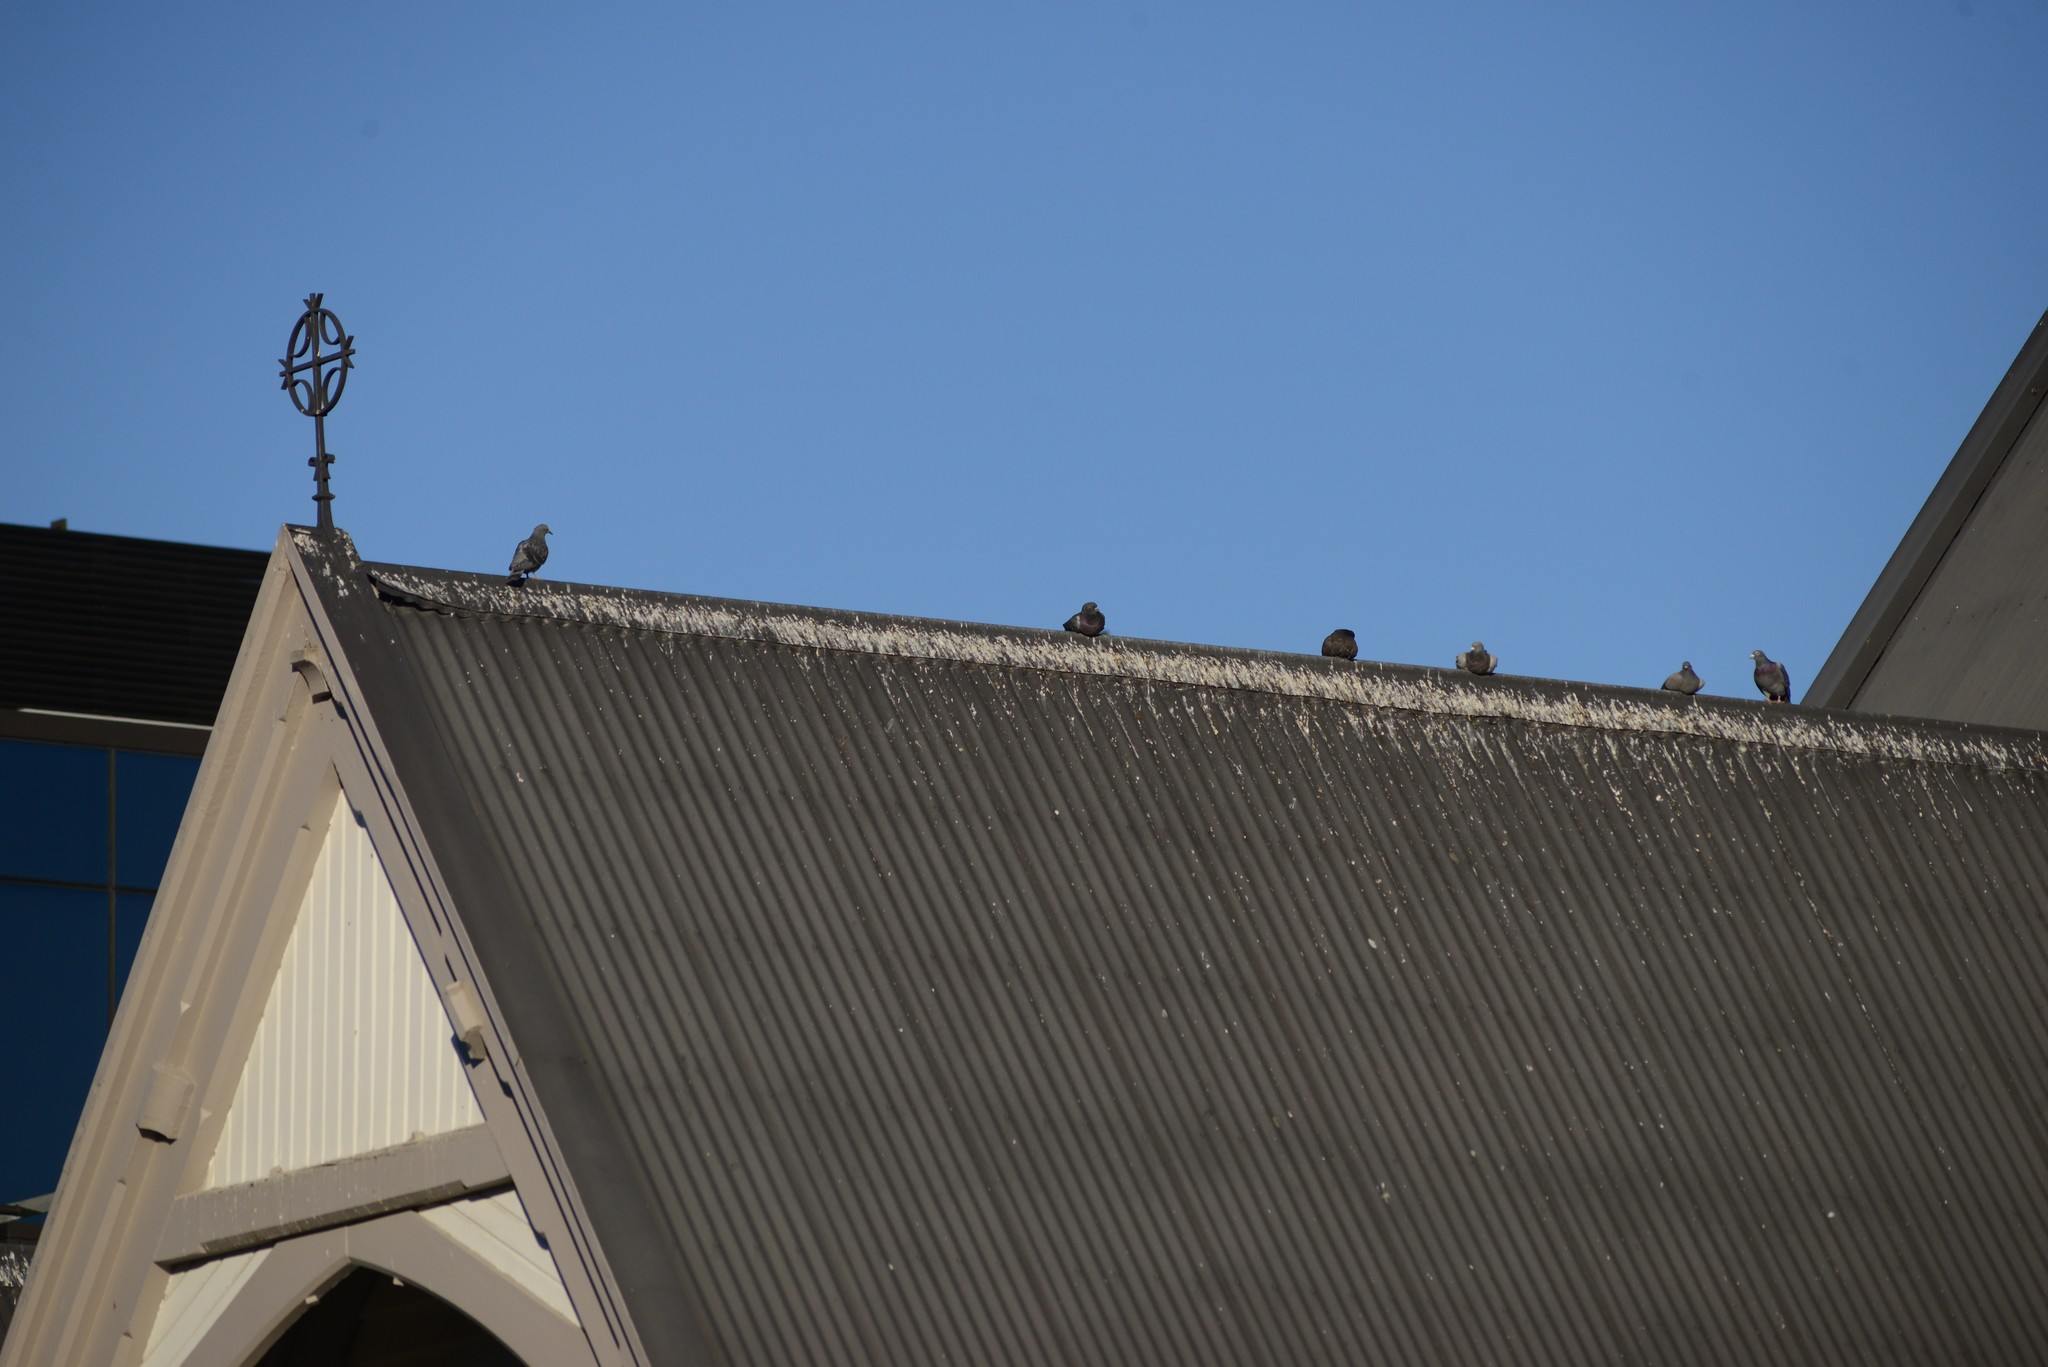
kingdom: Animalia
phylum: Chordata
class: Aves
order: Columbiformes
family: Columbidae
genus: Columba
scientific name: Columba livia
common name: Rock pigeon
